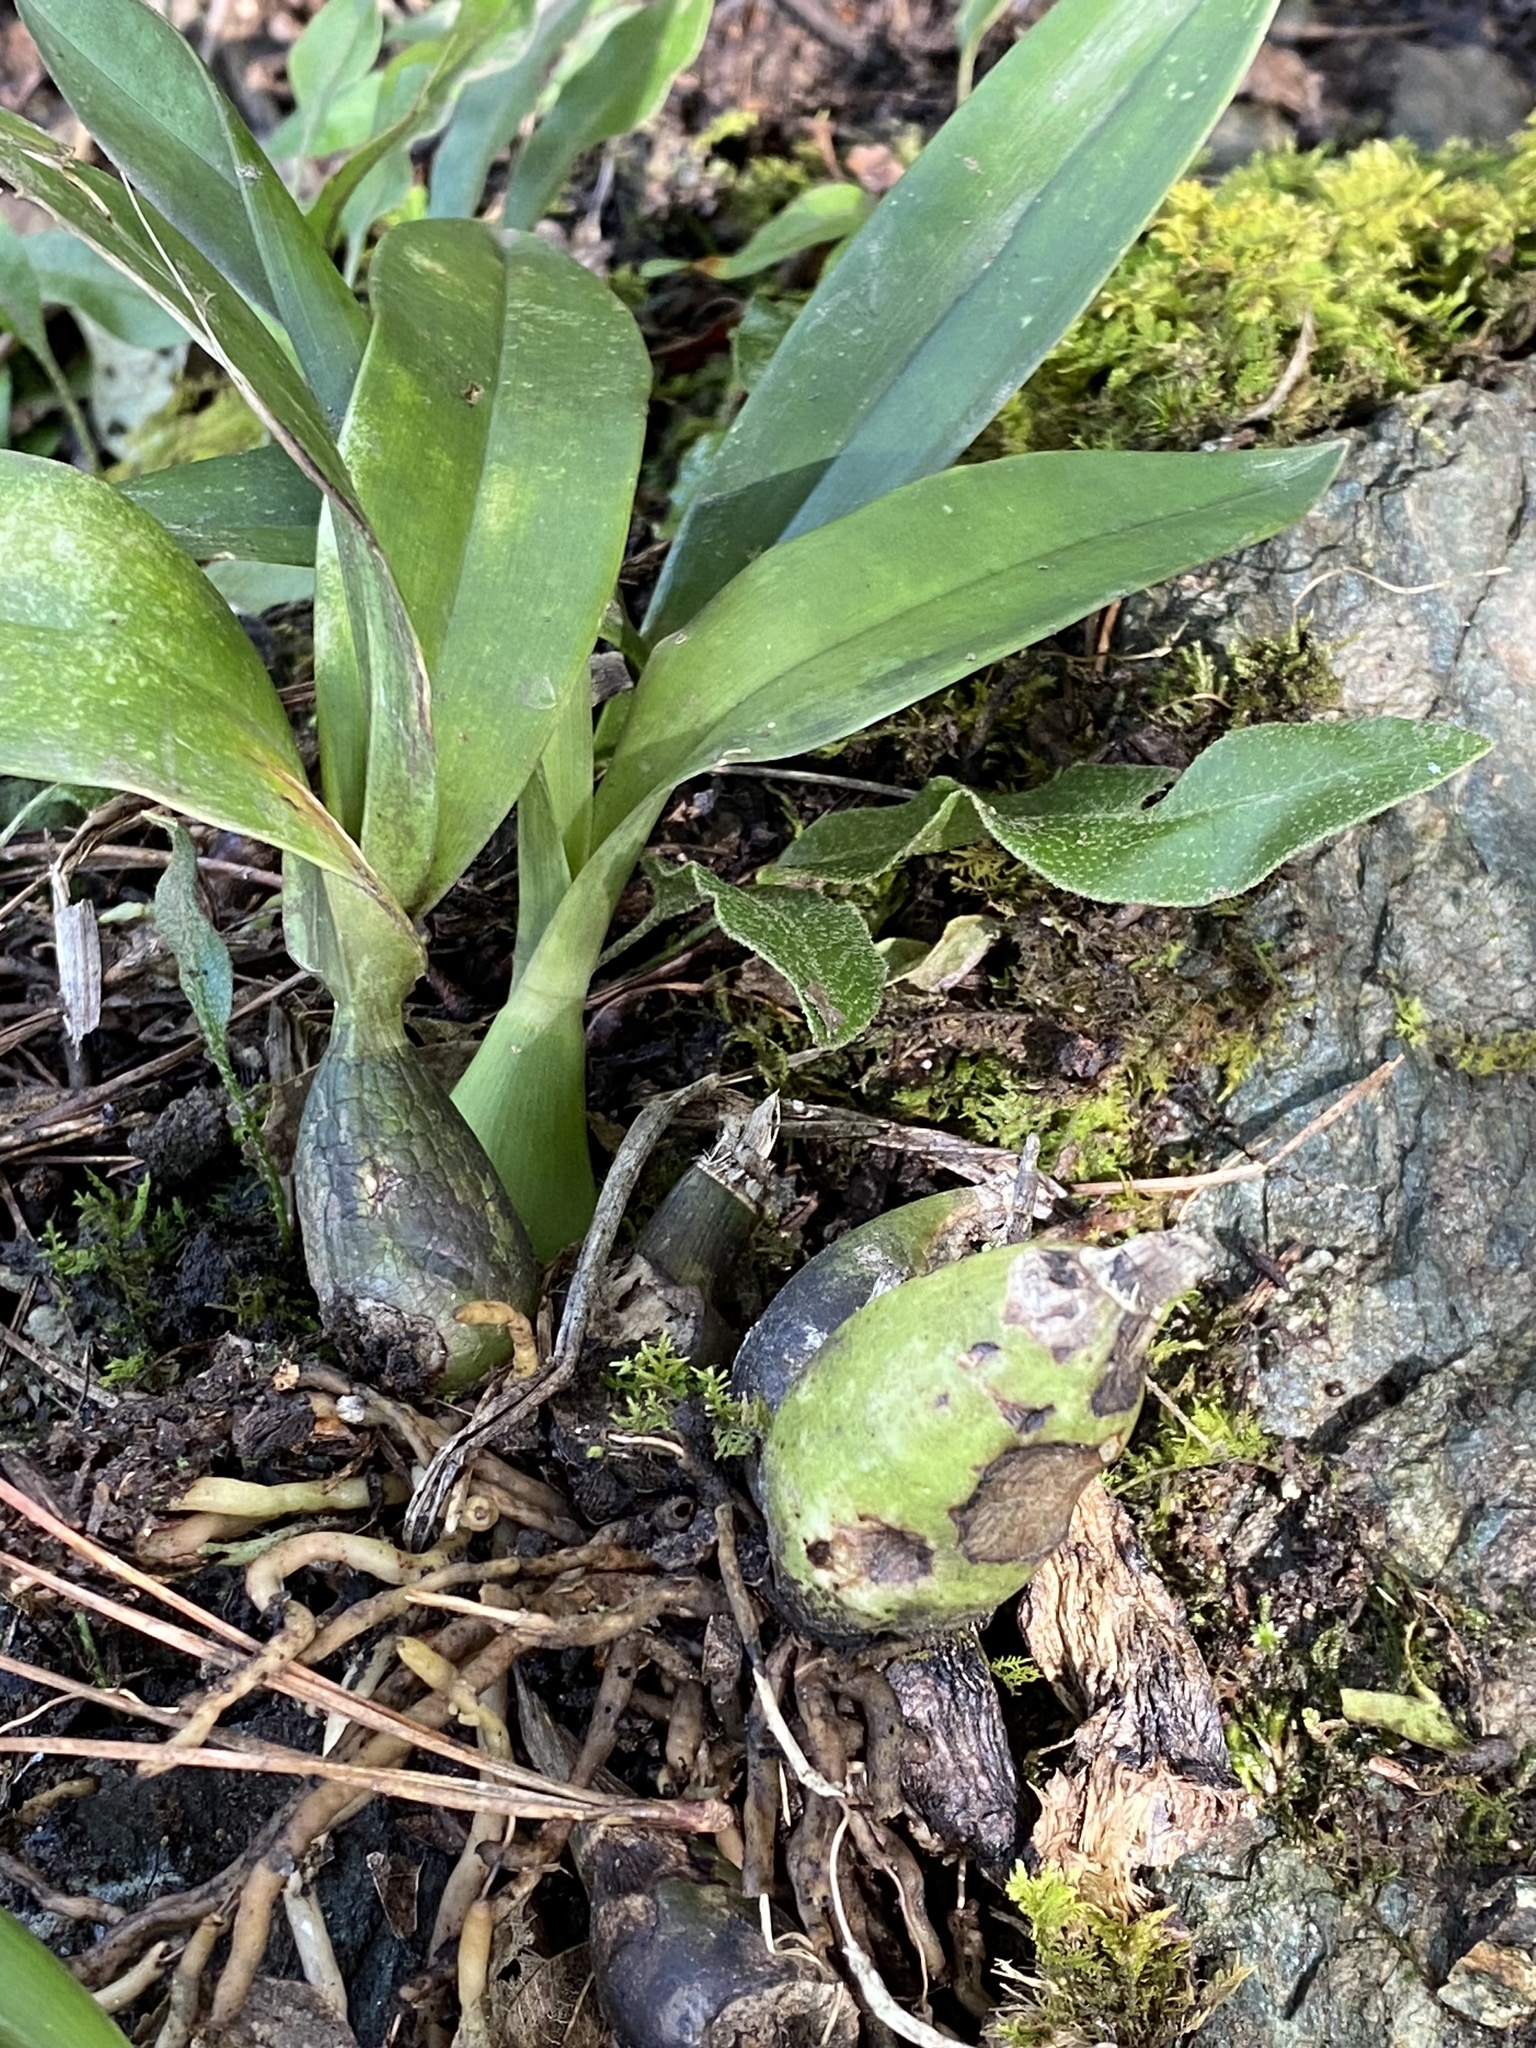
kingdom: Plantae
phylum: Tracheophyta
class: Liliopsida
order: Asparagales
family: Orchidaceae
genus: Prosthechea
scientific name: Prosthechea michuacana
